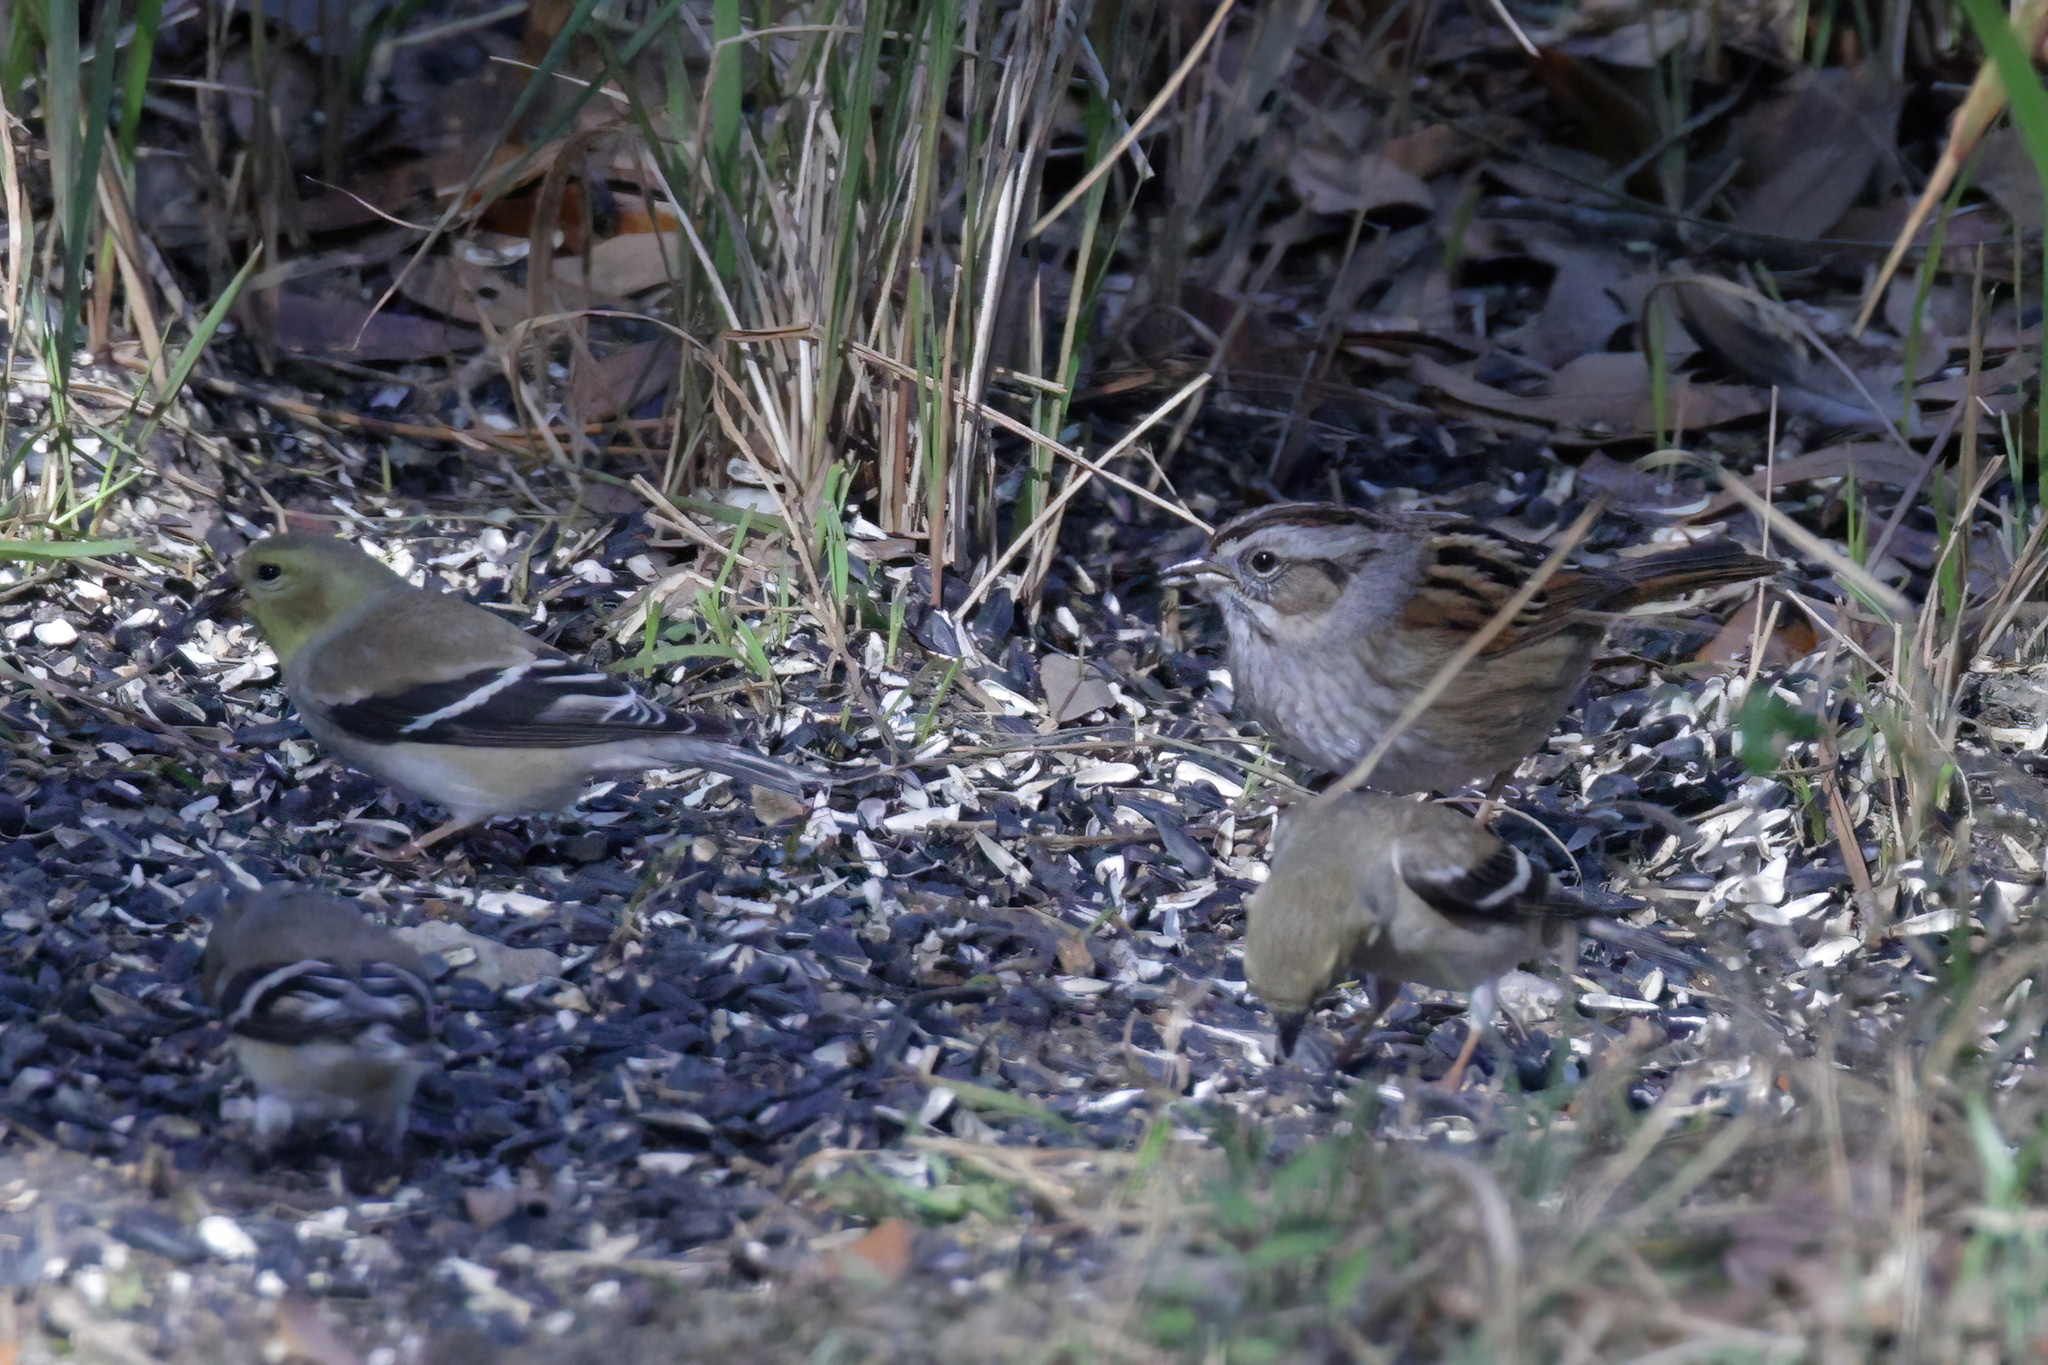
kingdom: Animalia
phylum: Chordata
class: Aves
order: Passeriformes
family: Fringillidae
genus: Spinus
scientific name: Spinus tristis
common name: American goldfinch
